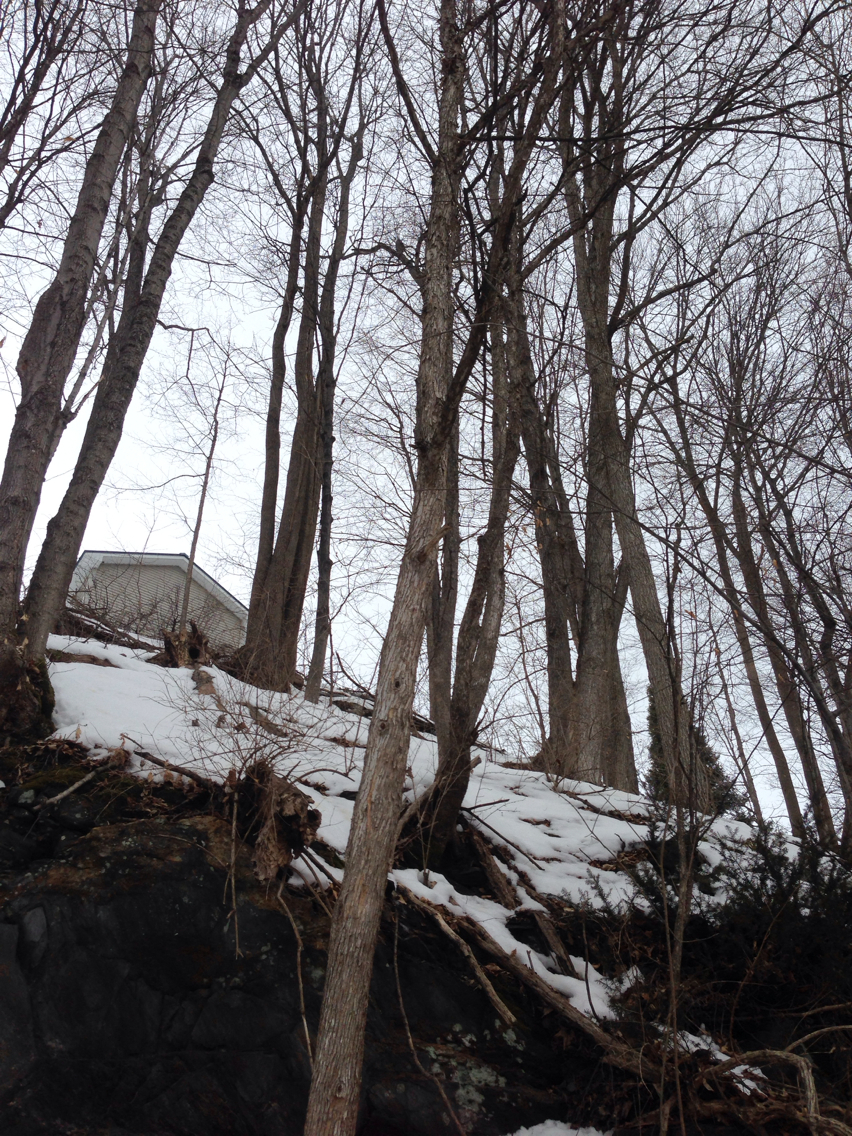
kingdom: Plantae
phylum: Tracheophyta
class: Magnoliopsida
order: Fagales
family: Betulaceae
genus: Ostrya
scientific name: Ostrya virginiana
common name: Ironwood
